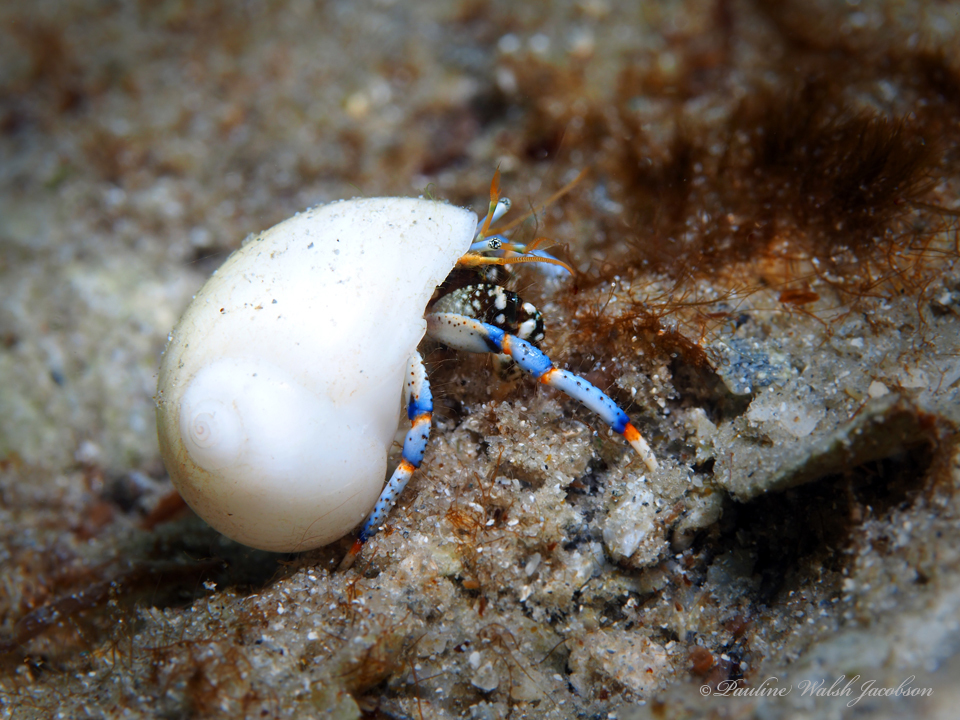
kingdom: Animalia
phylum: Arthropoda
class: Malacostraca
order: Decapoda
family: Diogenidae
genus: Clibanarius
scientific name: Clibanarius tricolor
